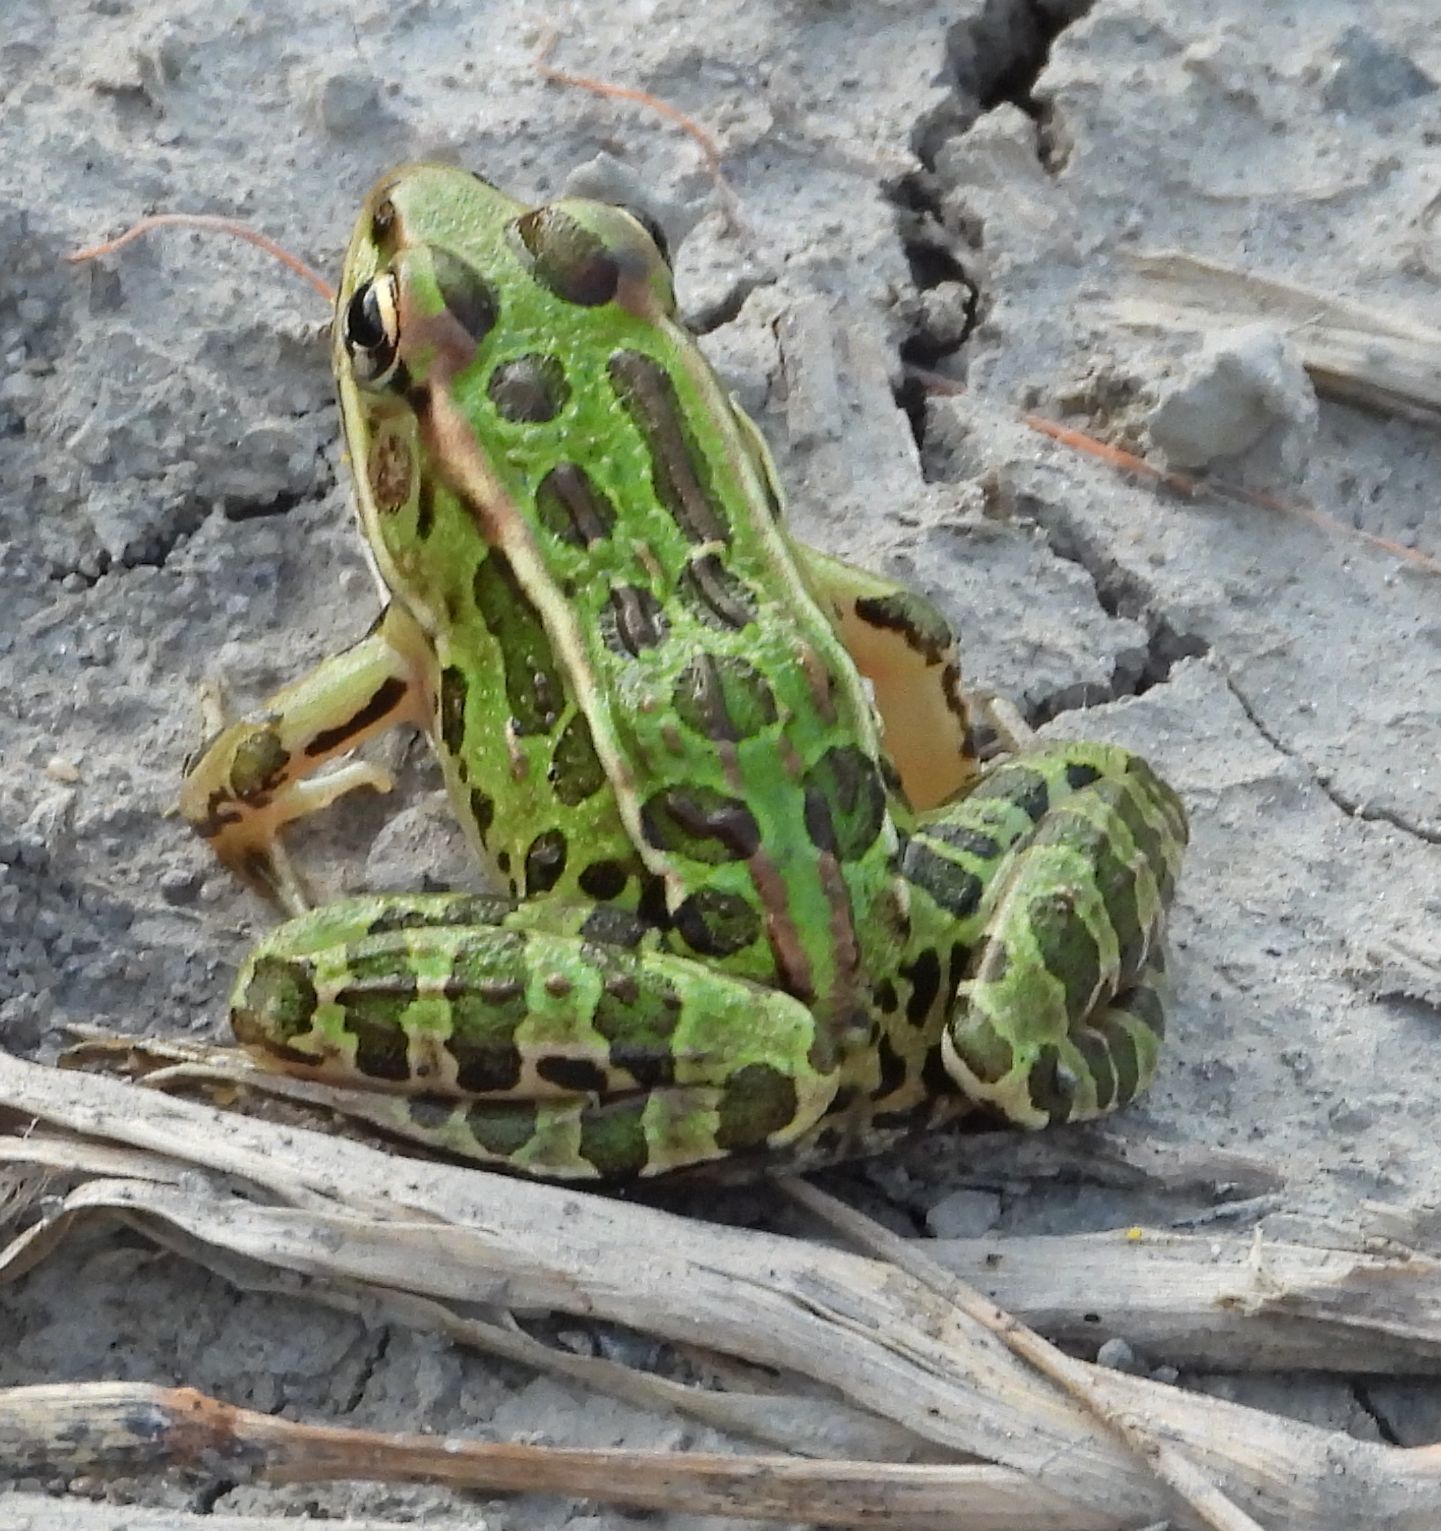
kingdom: Animalia
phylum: Chordata
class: Amphibia
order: Anura
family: Ranidae
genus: Lithobates
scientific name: Lithobates pipiens
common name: Northern leopard frog
